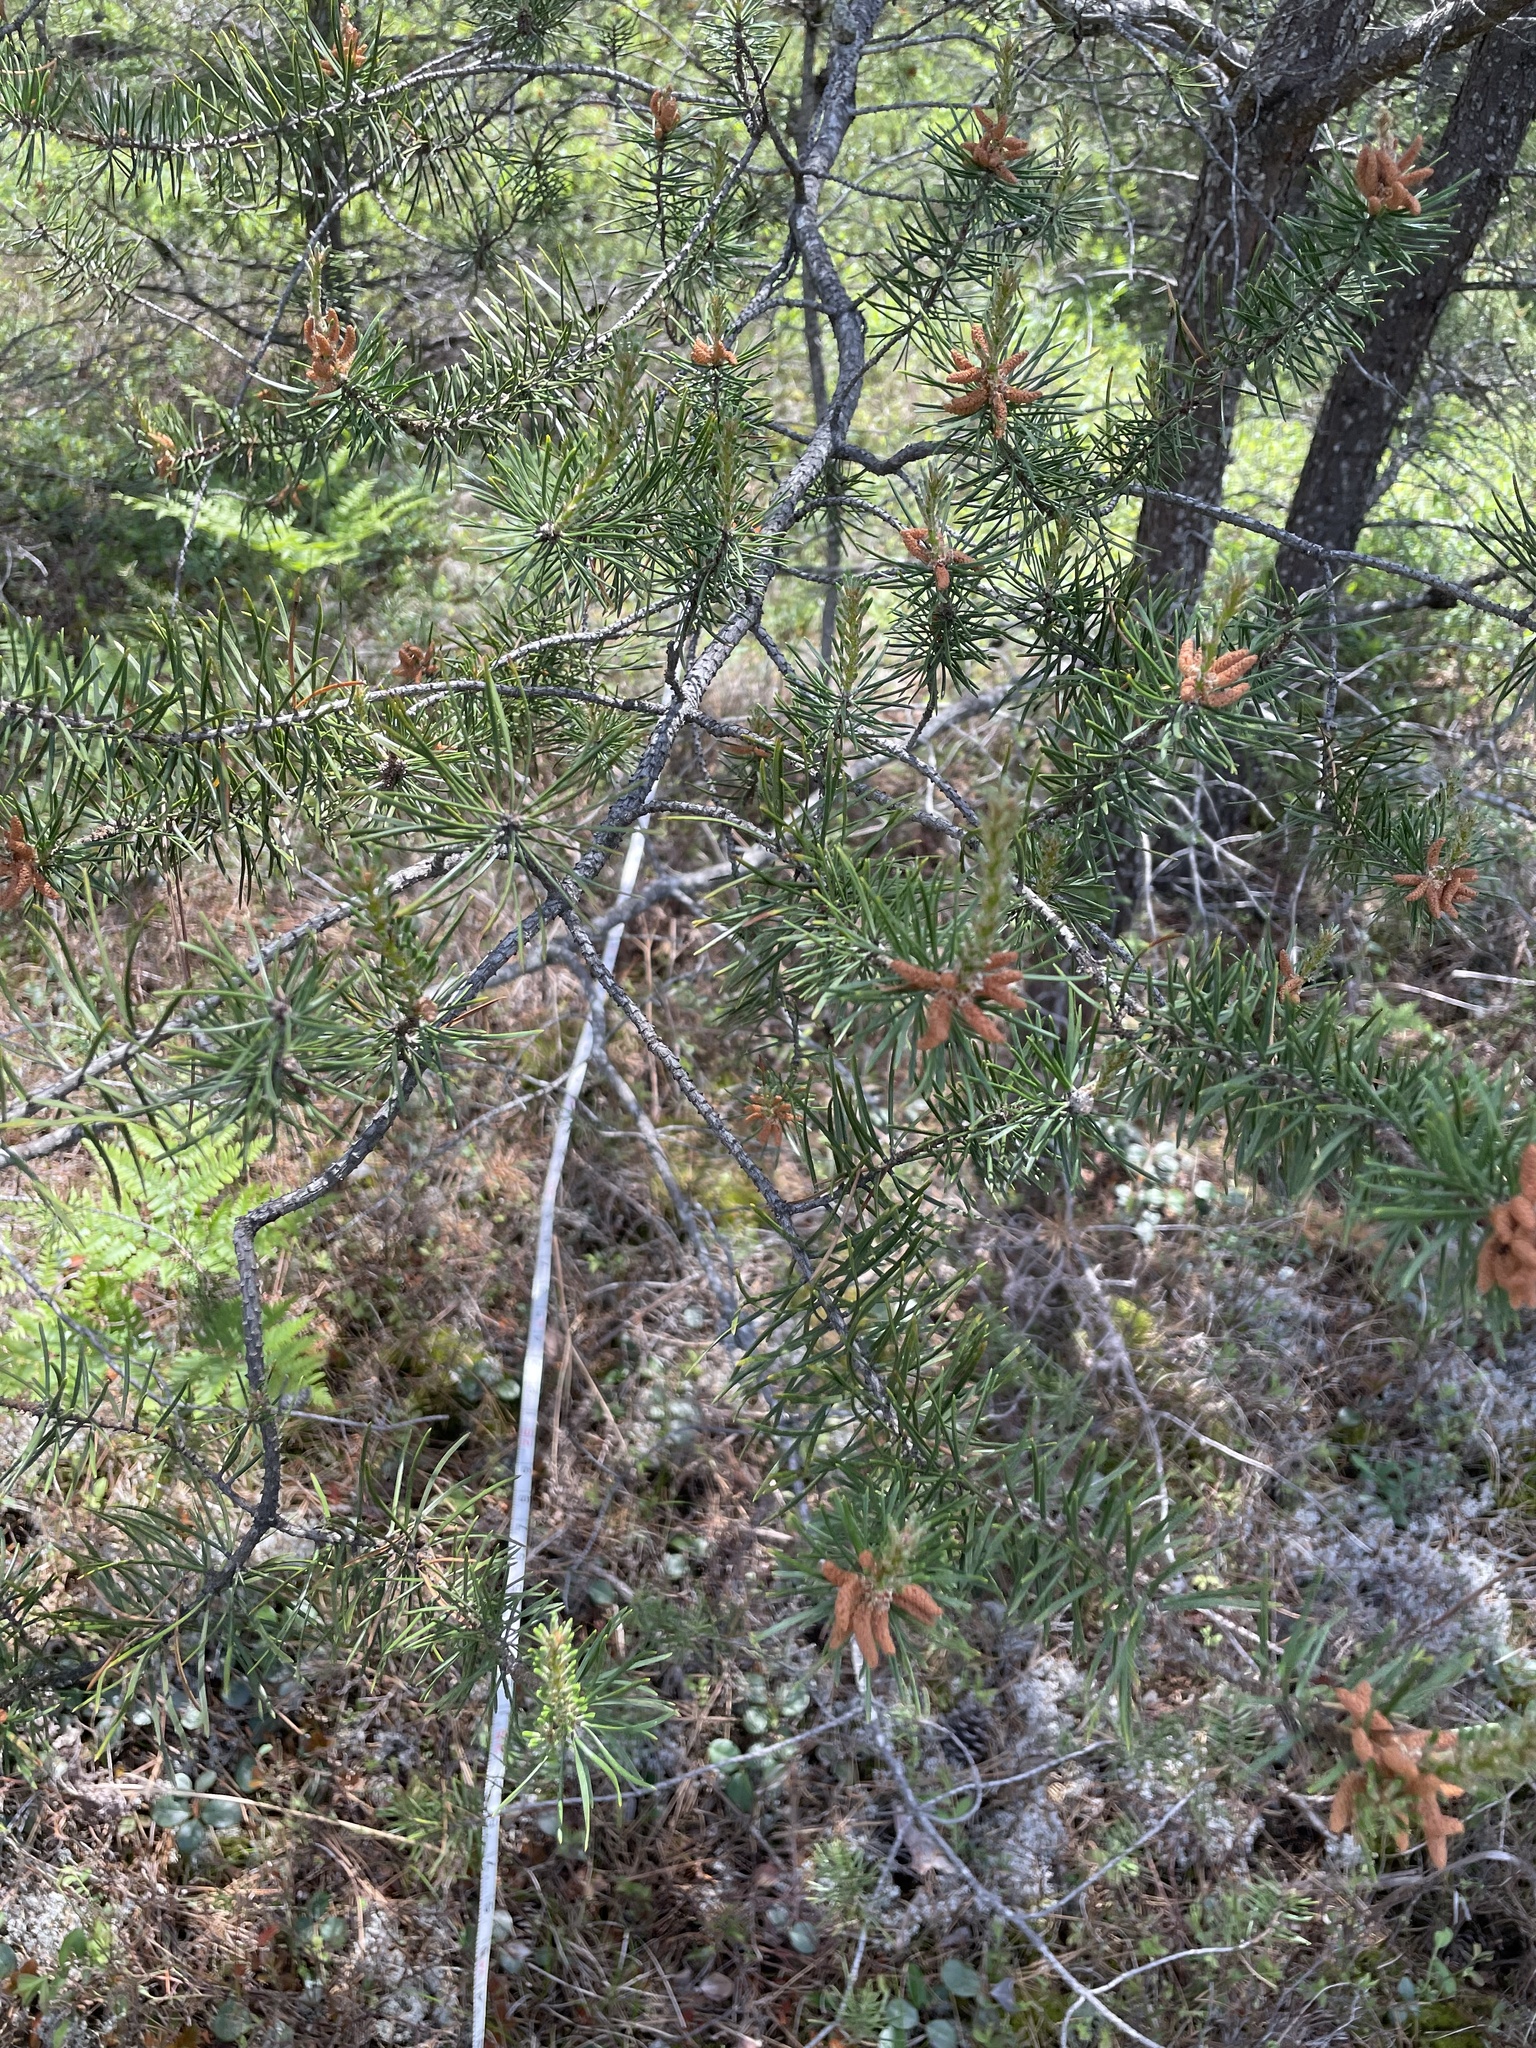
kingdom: Plantae
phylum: Tracheophyta
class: Magnoliopsida
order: Ericales
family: Ericaceae
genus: Vaccinium
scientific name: Vaccinium angustifolium
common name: Early lowbush blueberry
